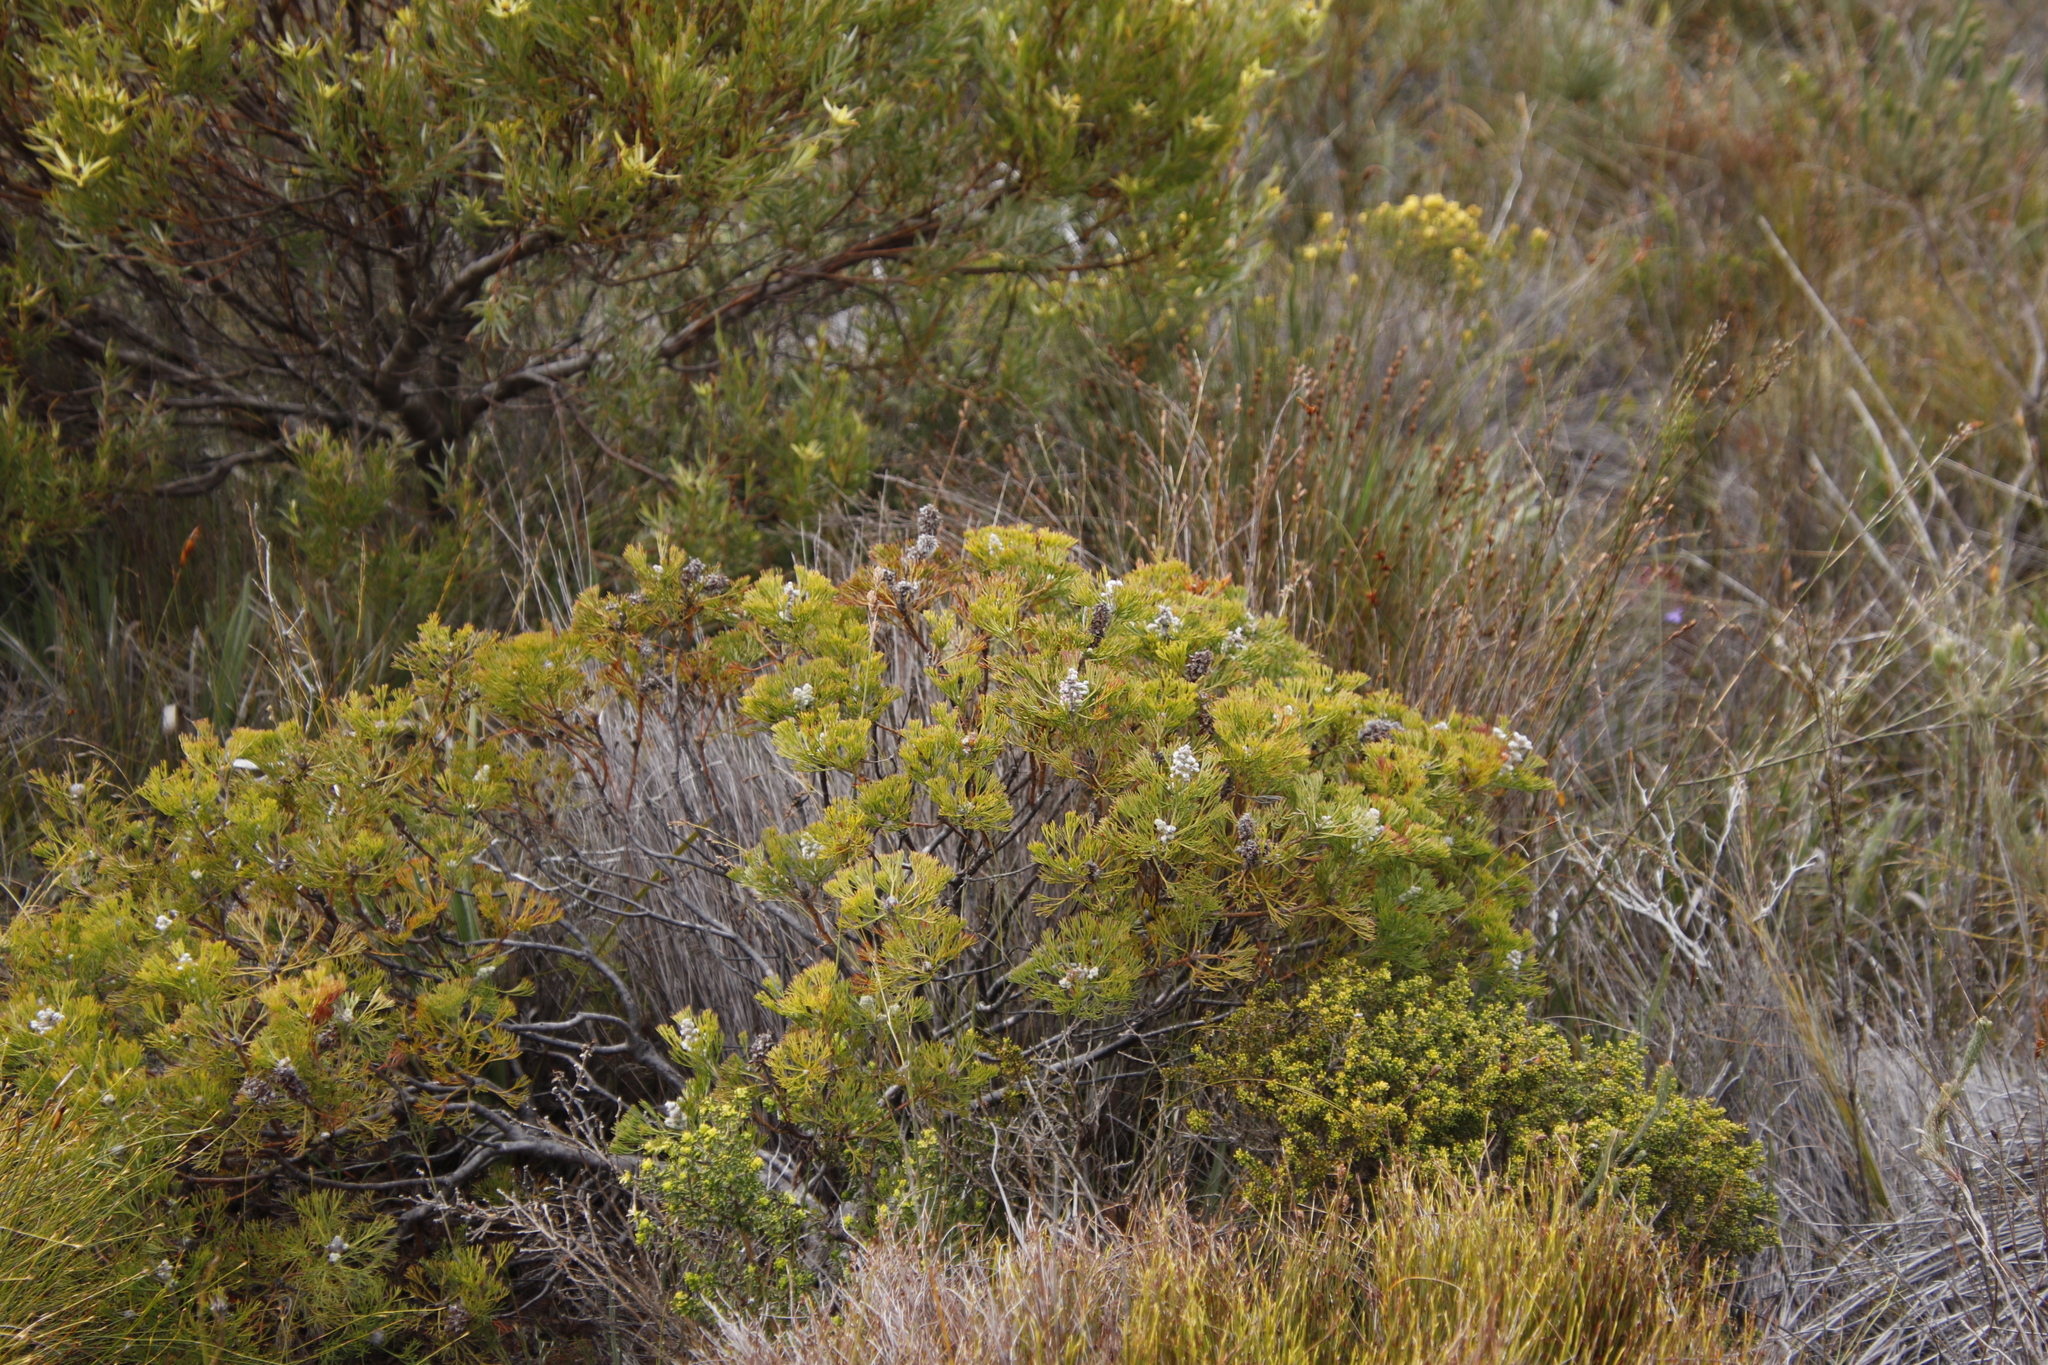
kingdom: Plantae
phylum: Tracheophyta
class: Magnoliopsida
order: Proteales
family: Proteaceae
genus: Paranomus
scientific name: Paranomus abrotanifolius
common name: Bredasdorp sceptre
